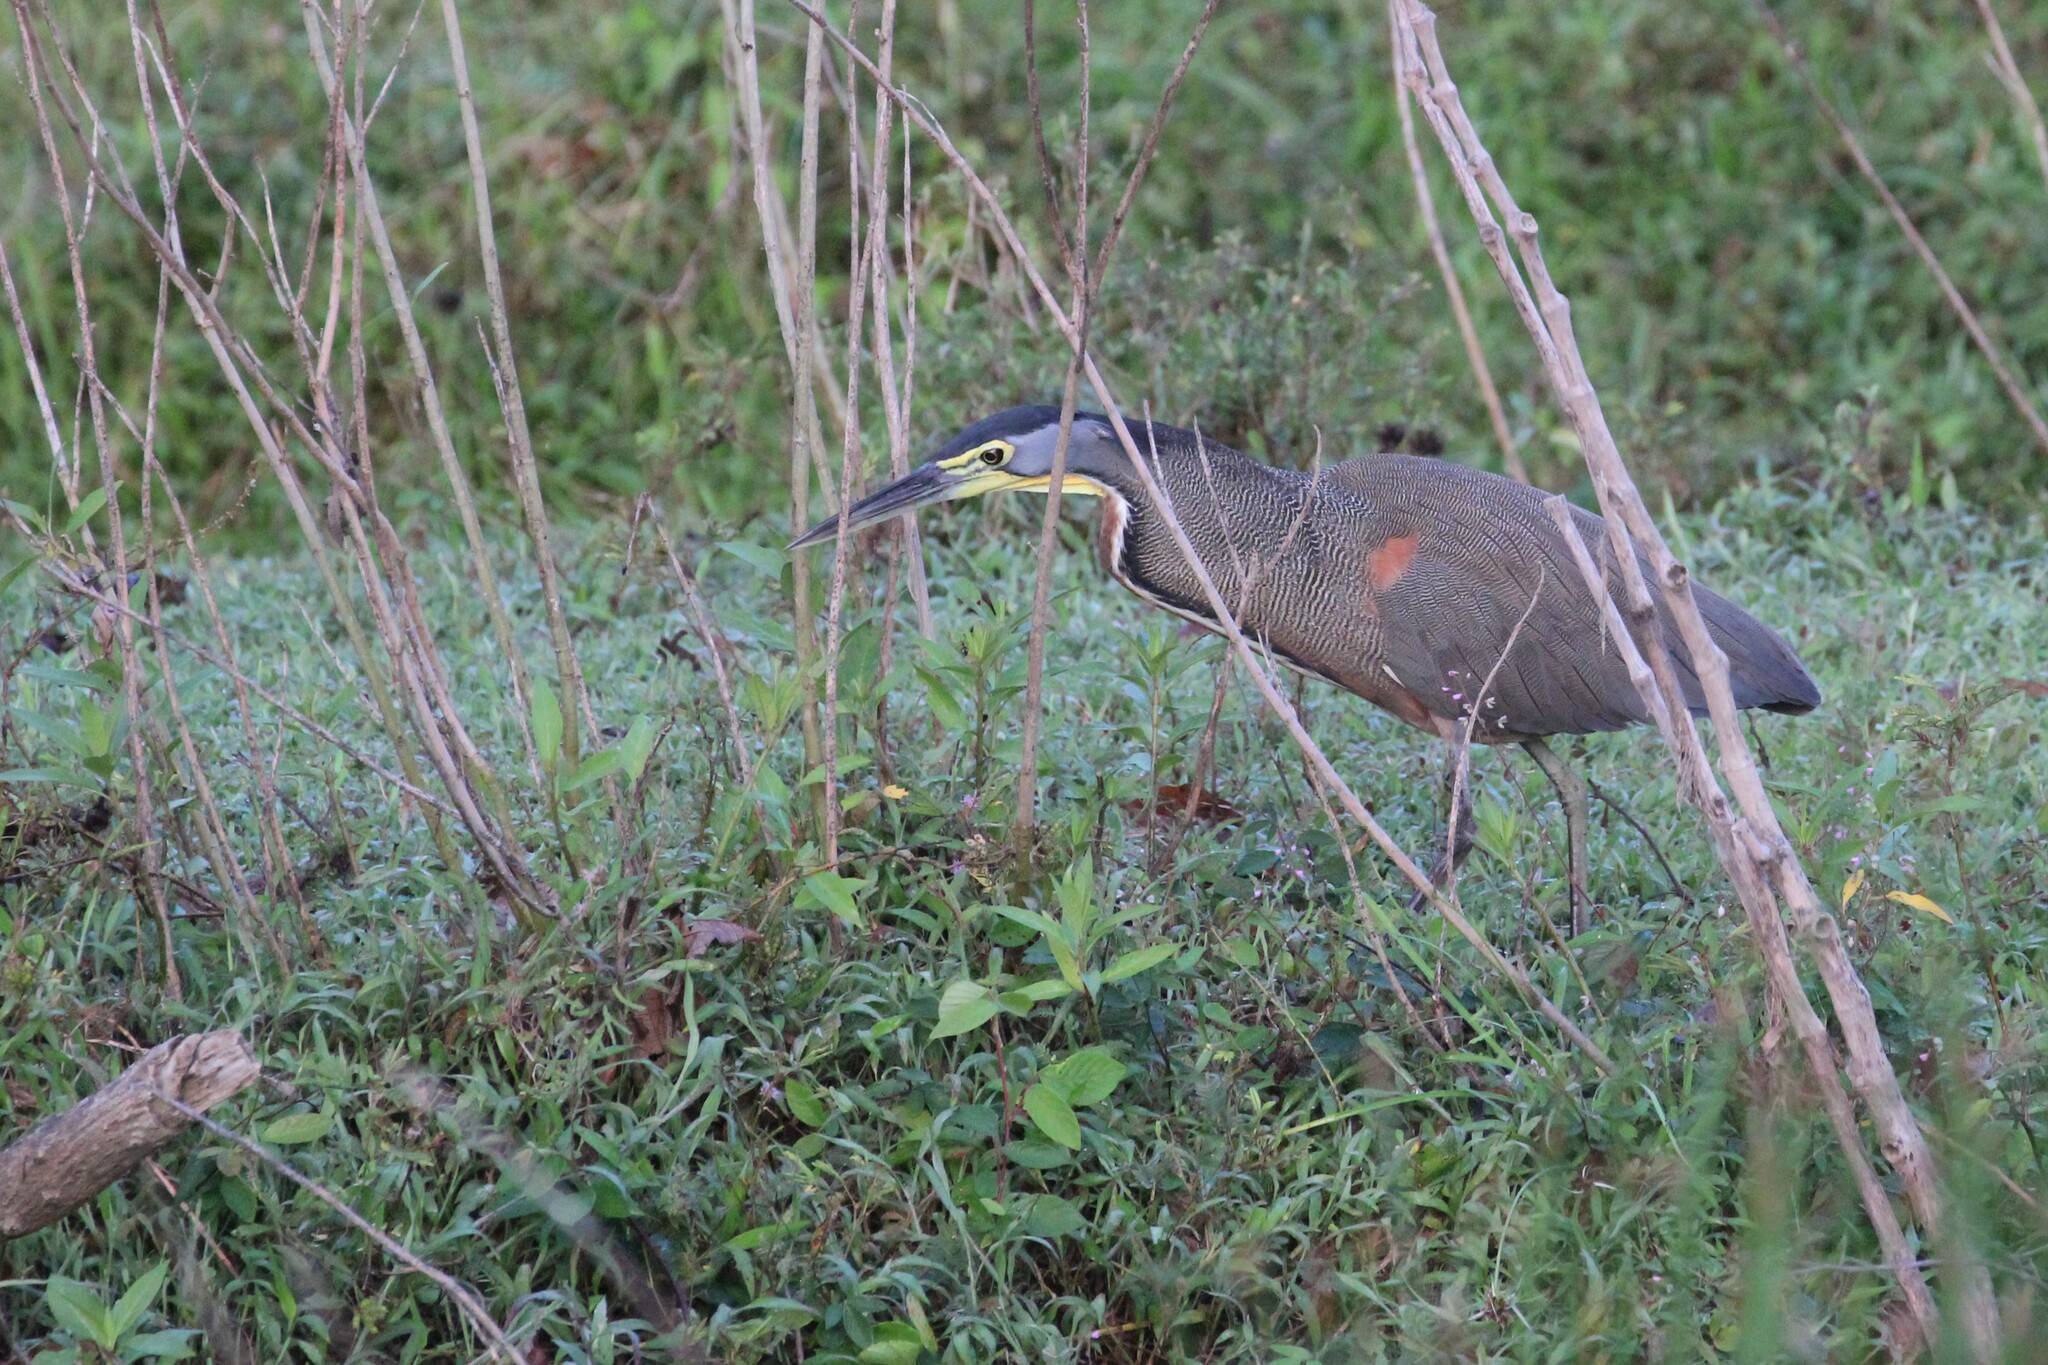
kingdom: Animalia
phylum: Chordata
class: Aves
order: Pelecaniformes
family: Ardeidae
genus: Tigrisoma
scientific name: Tigrisoma mexicanum
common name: Bare-throated tiger-heron
